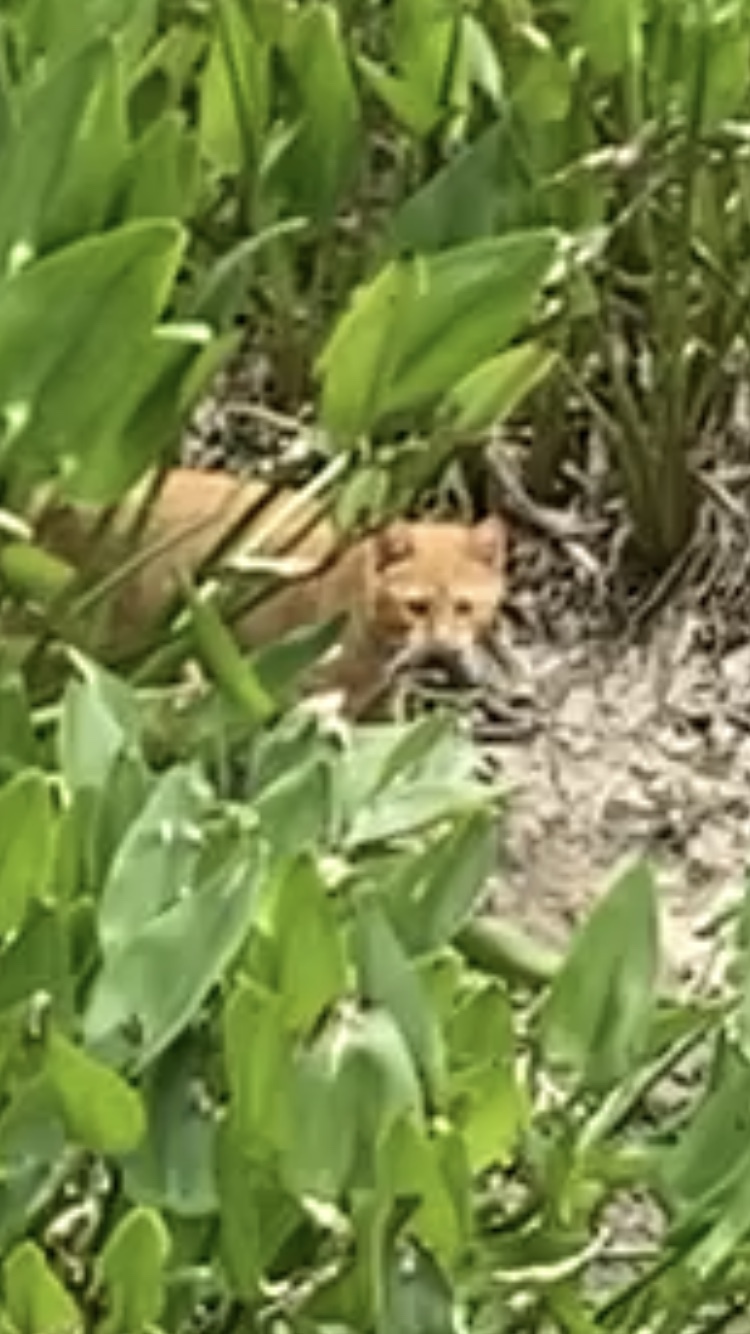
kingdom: Animalia
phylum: Chordata
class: Mammalia
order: Carnivora
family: Felidae
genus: Felis
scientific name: Felis catus
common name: Domestic cat
